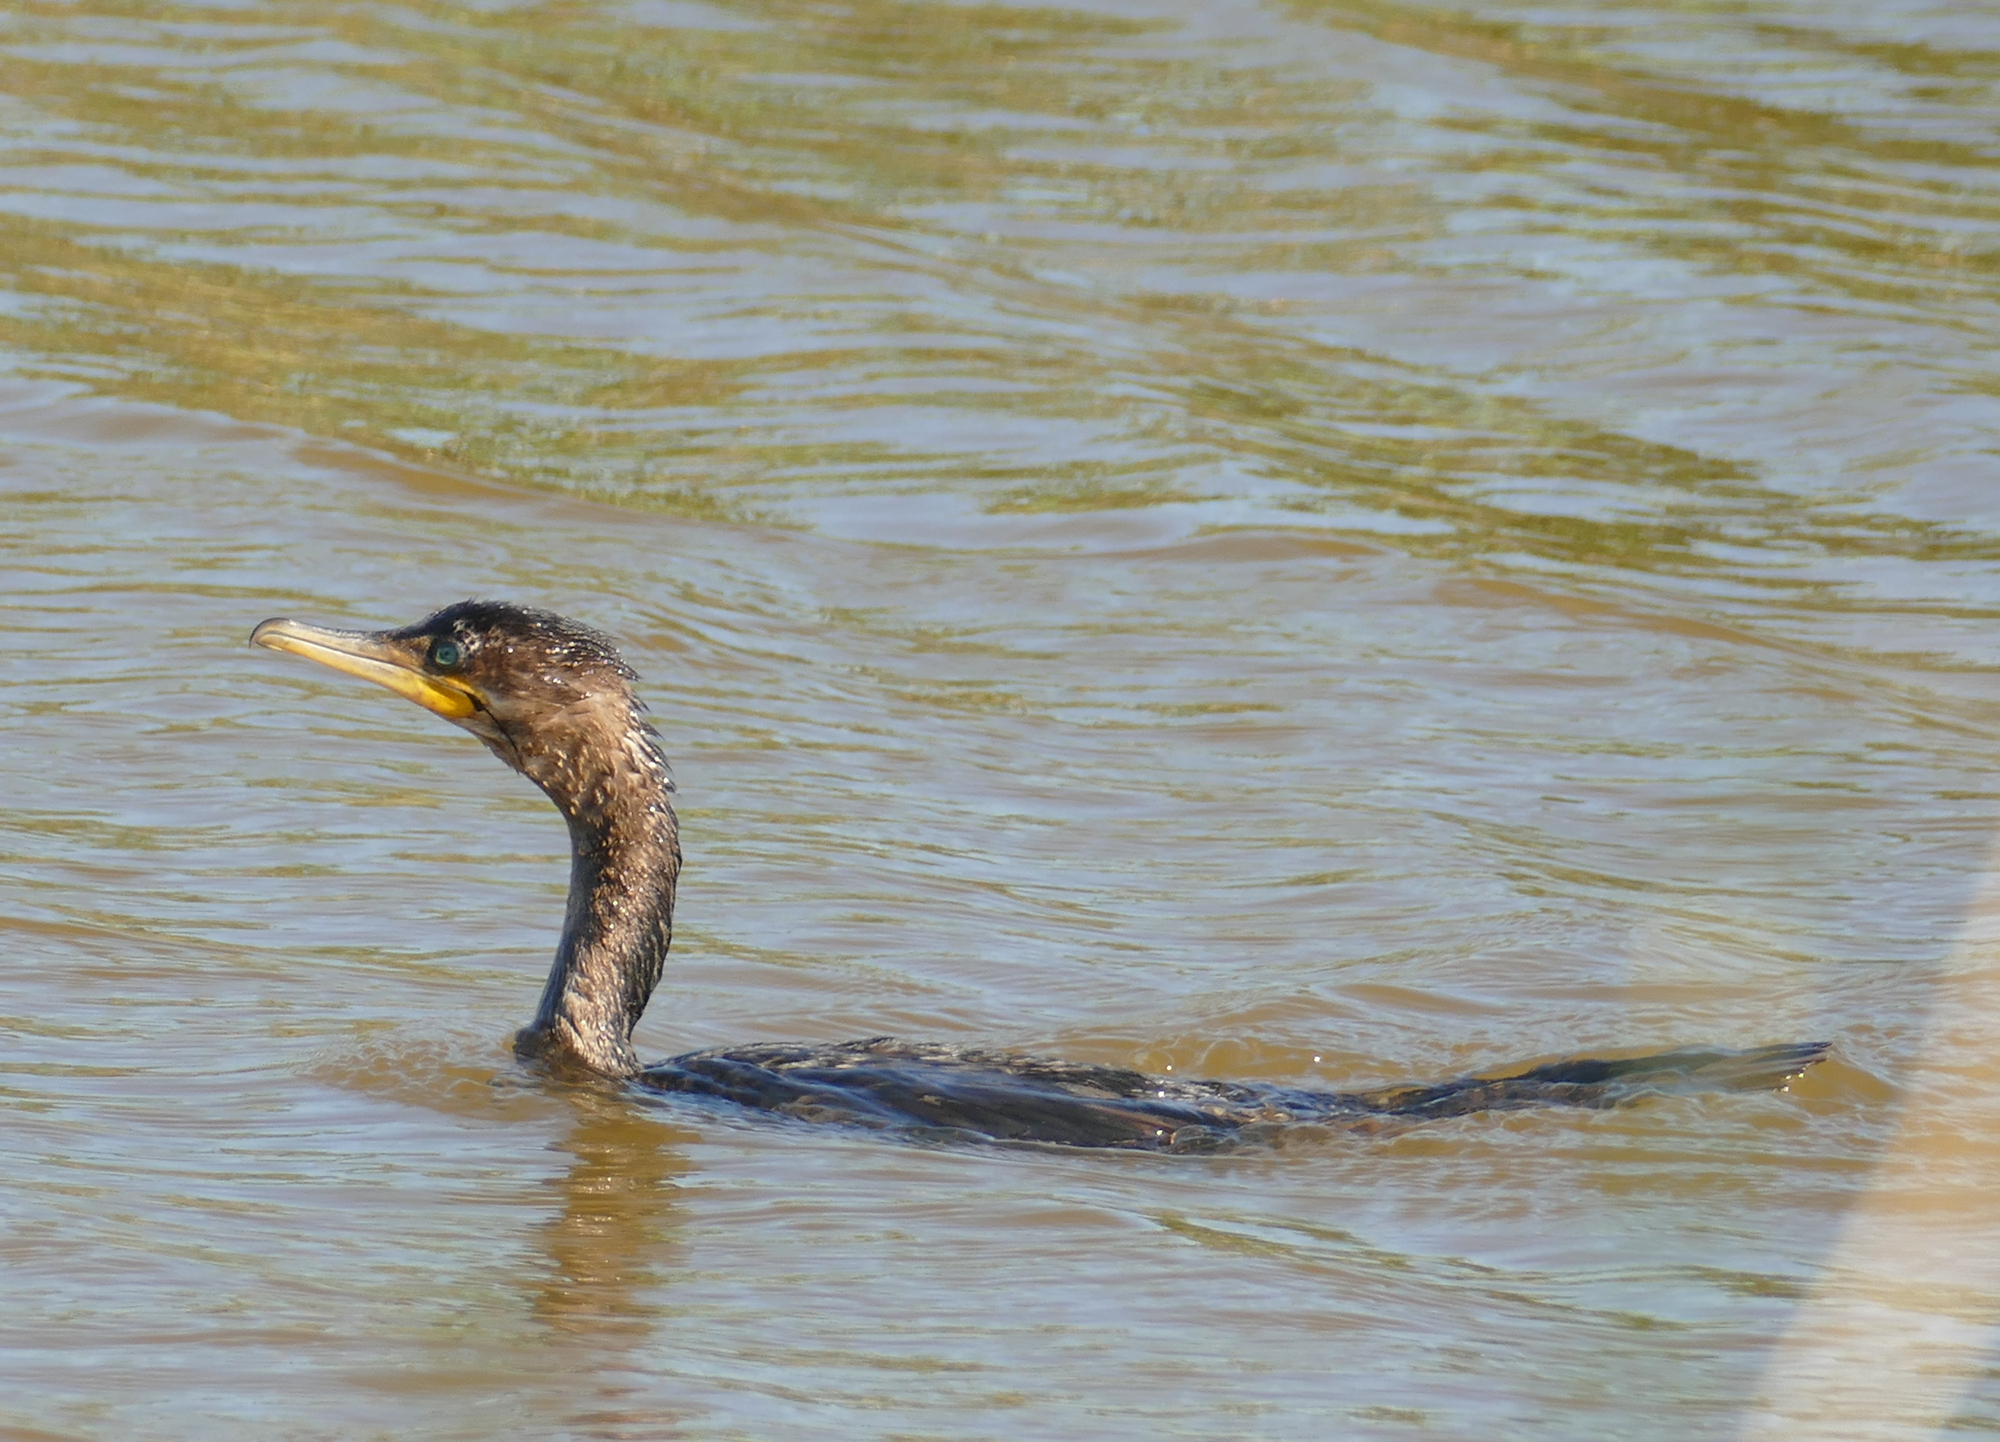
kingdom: Animalia
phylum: Chordata
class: Aves
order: Suliformes
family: Phalacrocoracidae
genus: Phalacrocorax
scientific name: Phalacrocorax brasilianus
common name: Neotropic cormorant
